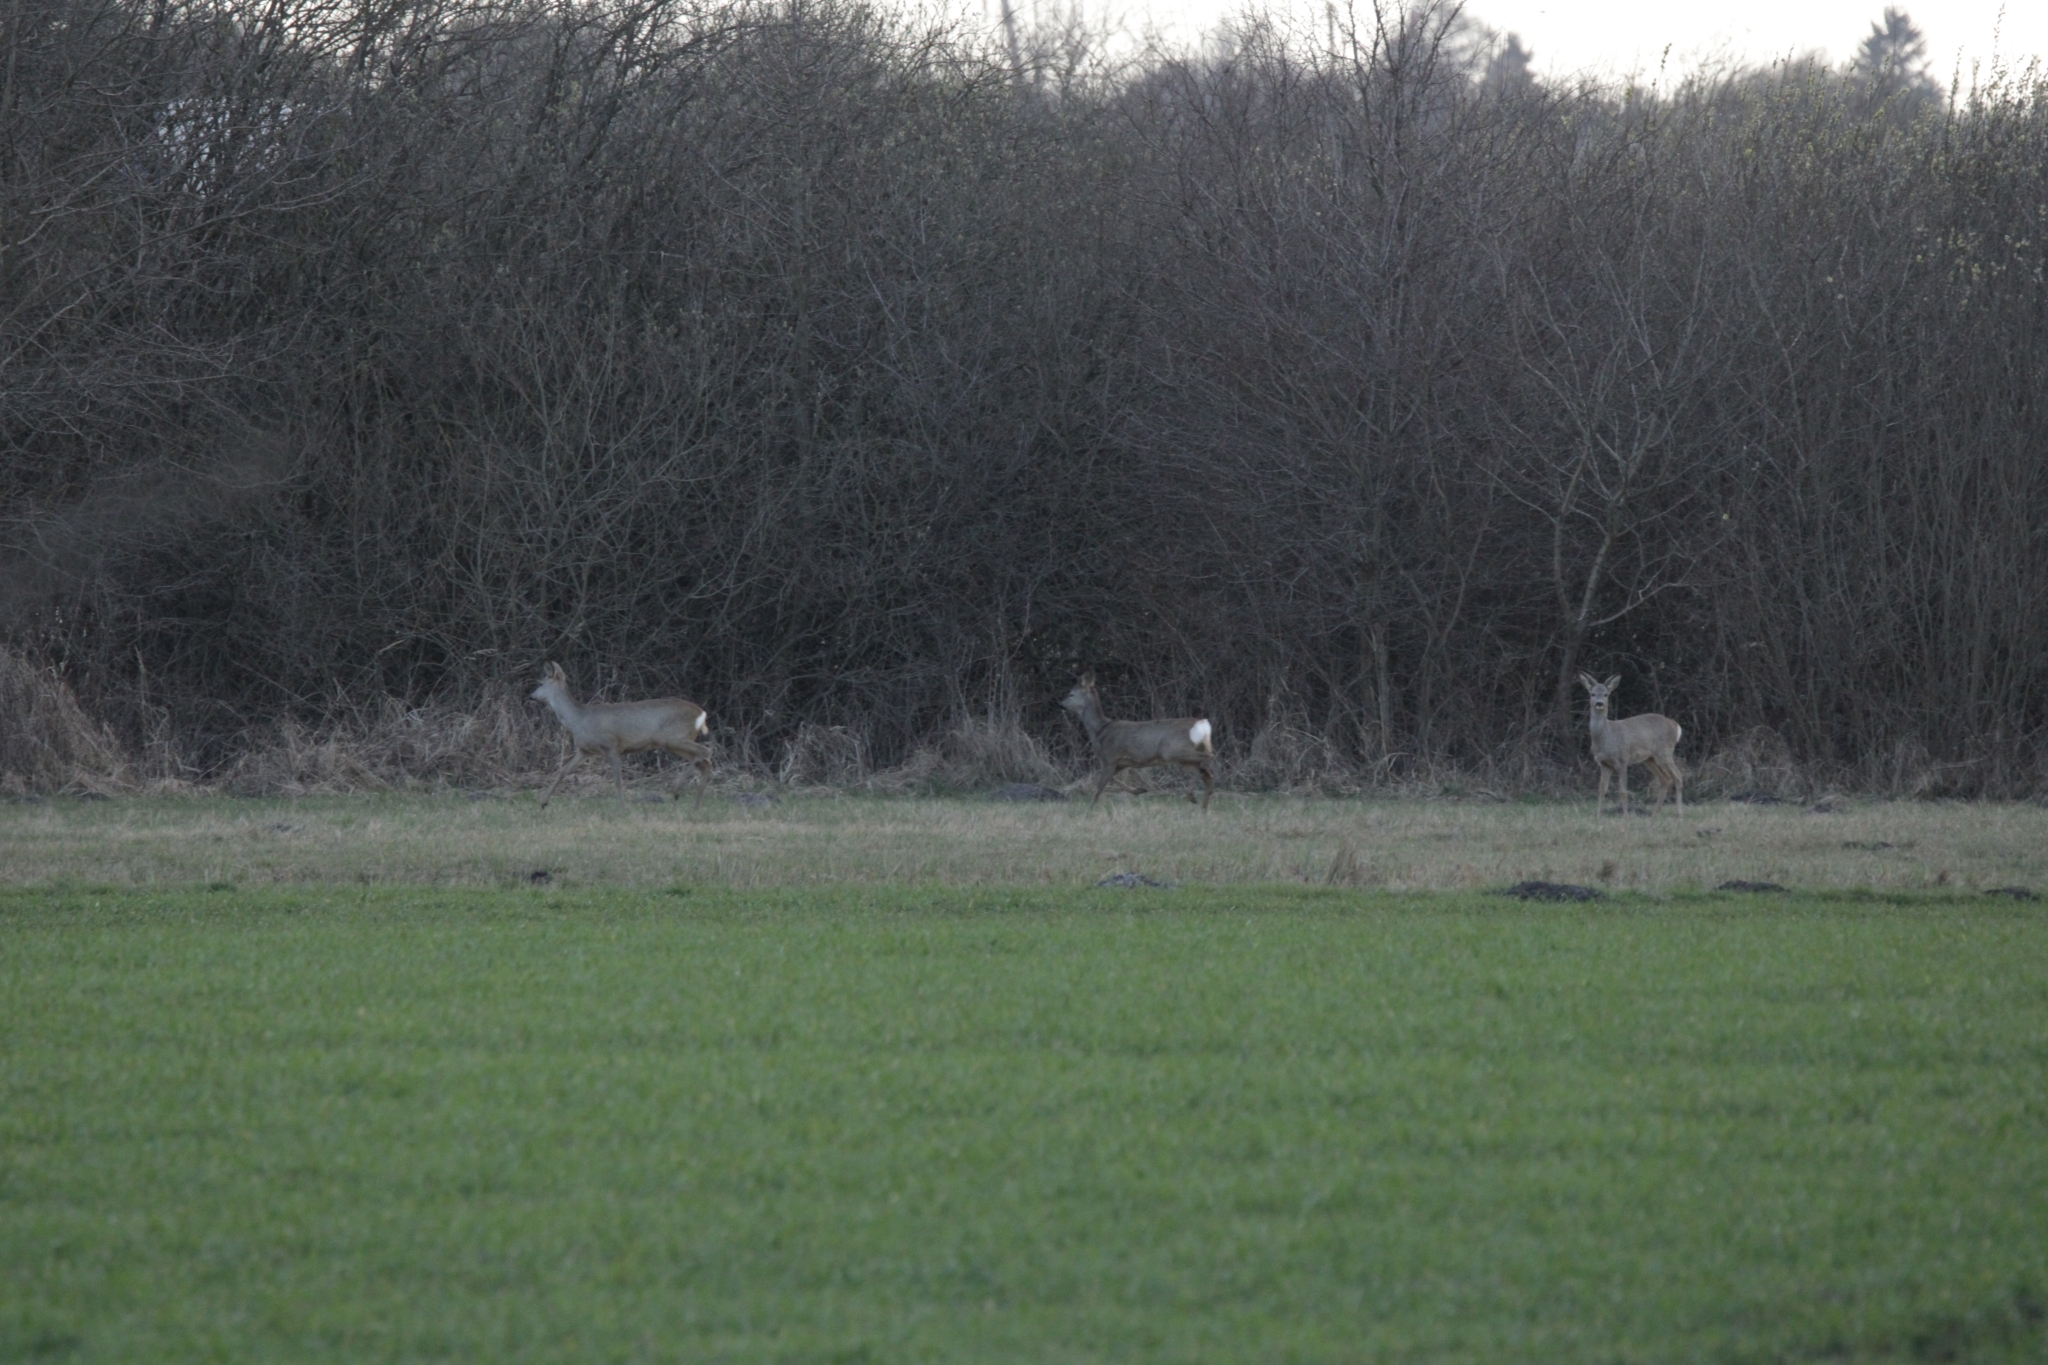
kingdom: Animalia
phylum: Chordata
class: Mammalia
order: Artiodactyla
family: Cervidae
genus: Capreolus
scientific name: Capreolus capreolus
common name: Western roe deer
